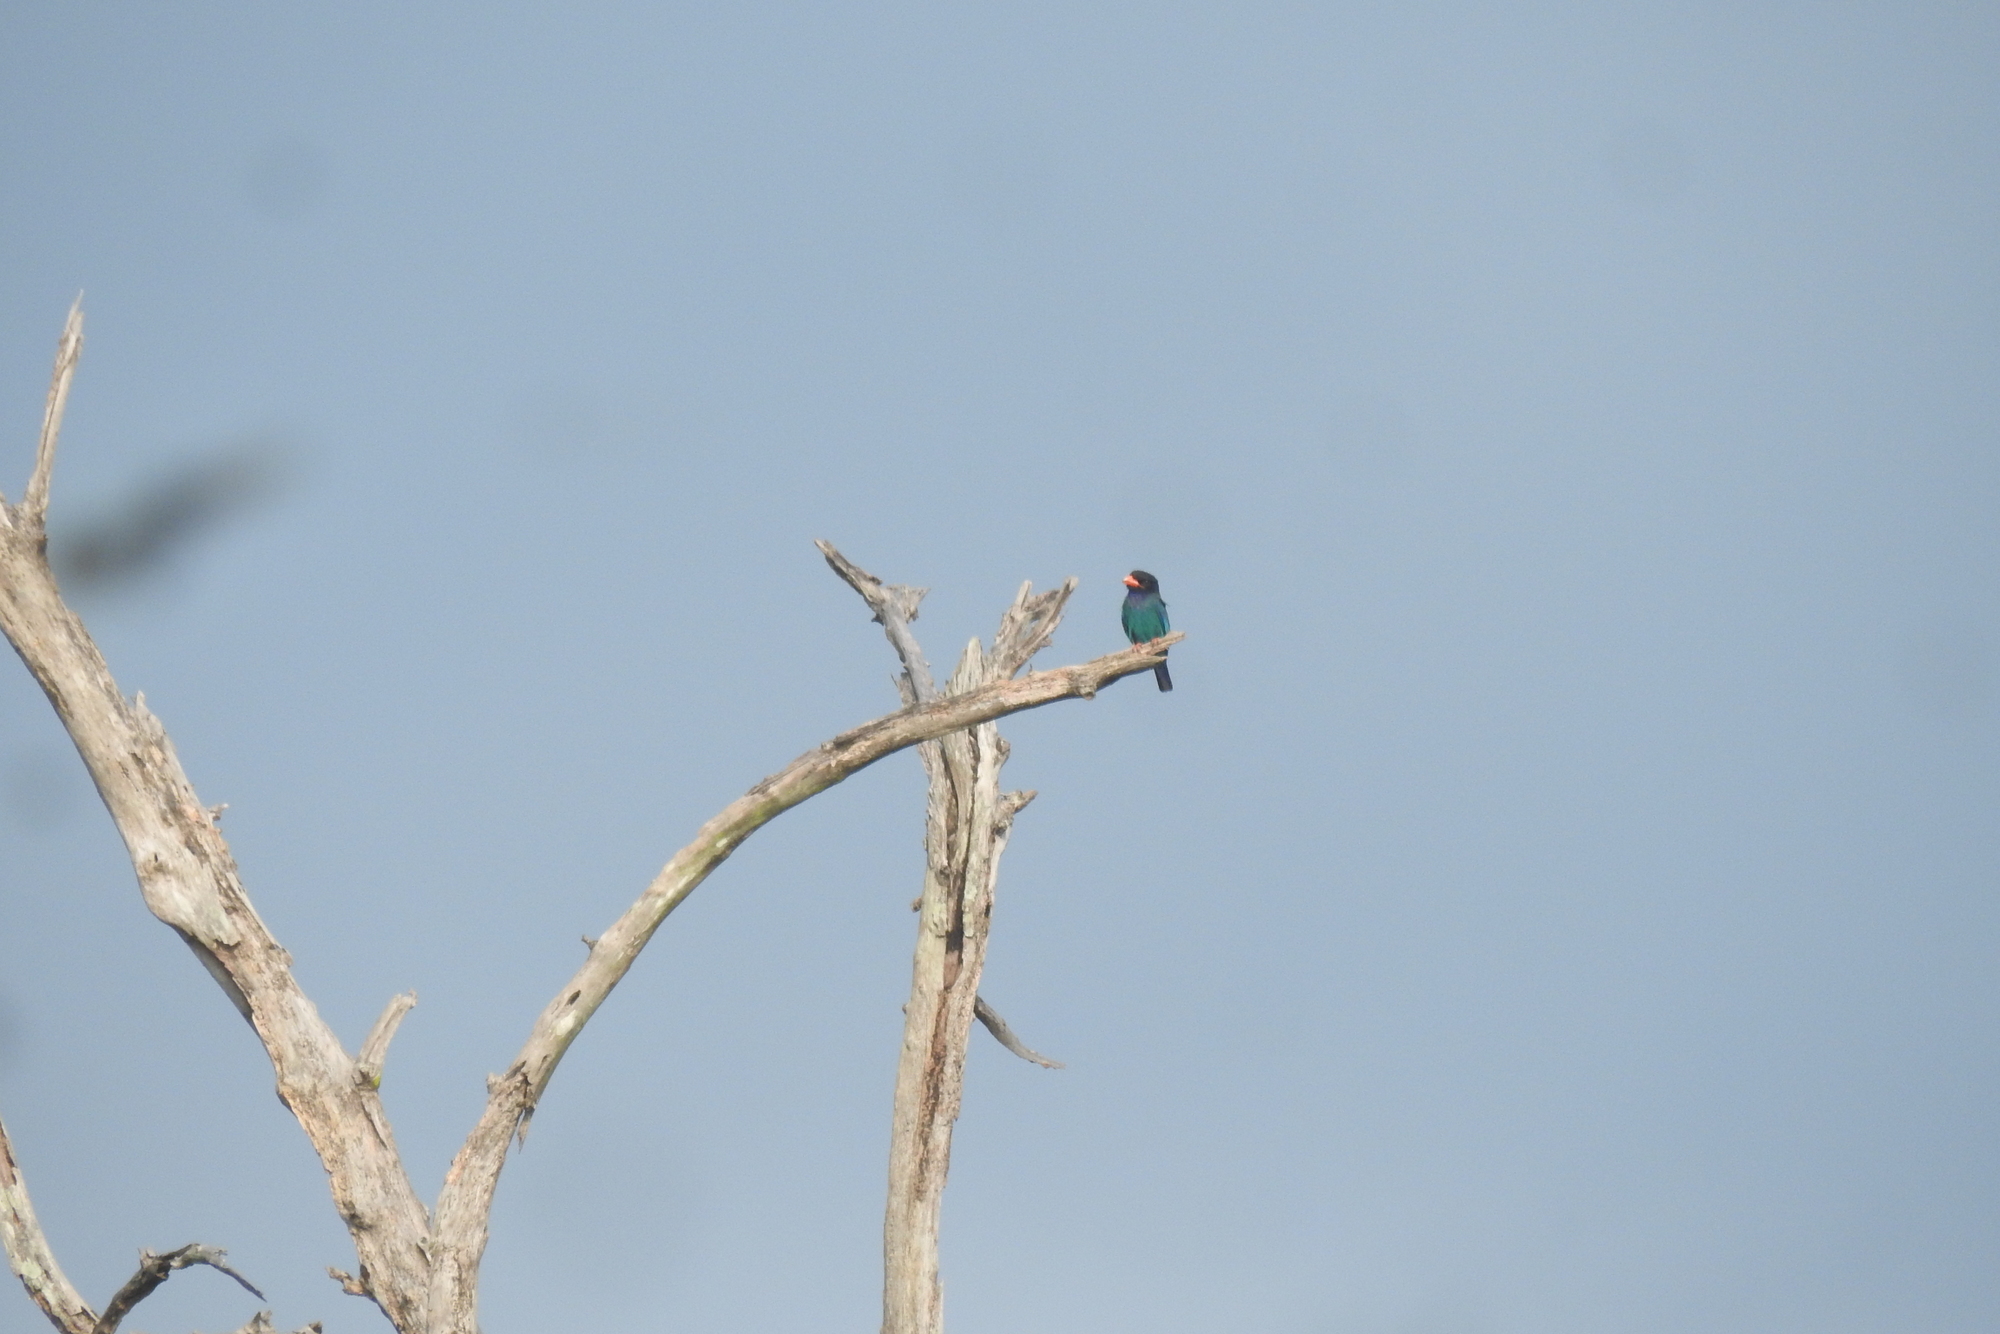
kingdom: Animalia
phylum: Chordata
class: Aves
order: Coraciiformes
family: Coraciidae
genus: Eurystomus
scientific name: Eurystomus orientalis
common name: Oriental dollarbird
